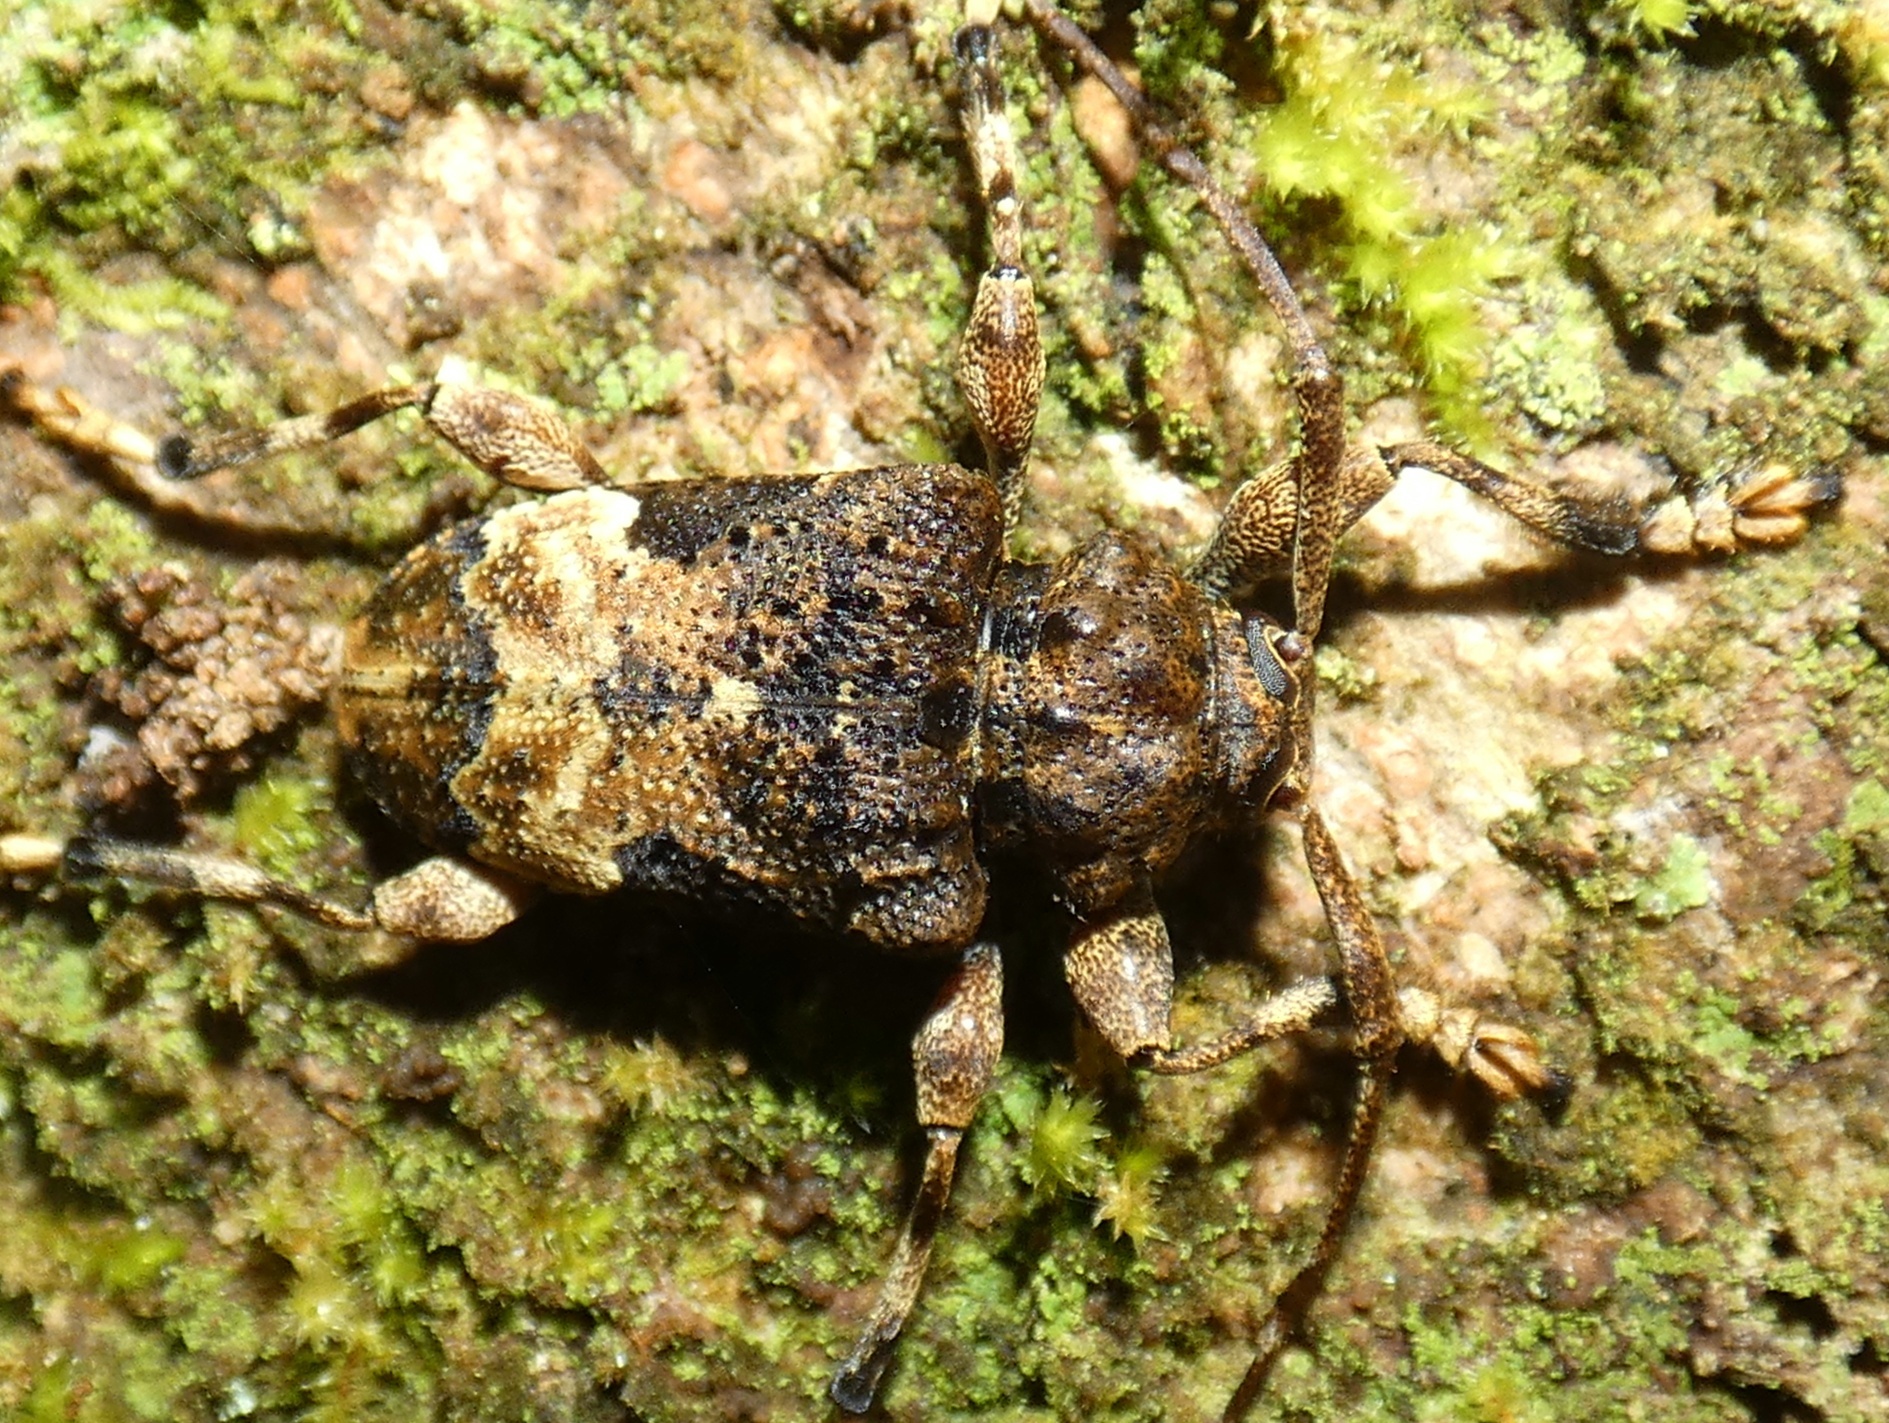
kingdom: Animalia
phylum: Arthropoda
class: Insecta
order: Coleoptera
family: Cerambycidae
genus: Lagocheirus
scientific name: Lagocheirus plantaris
